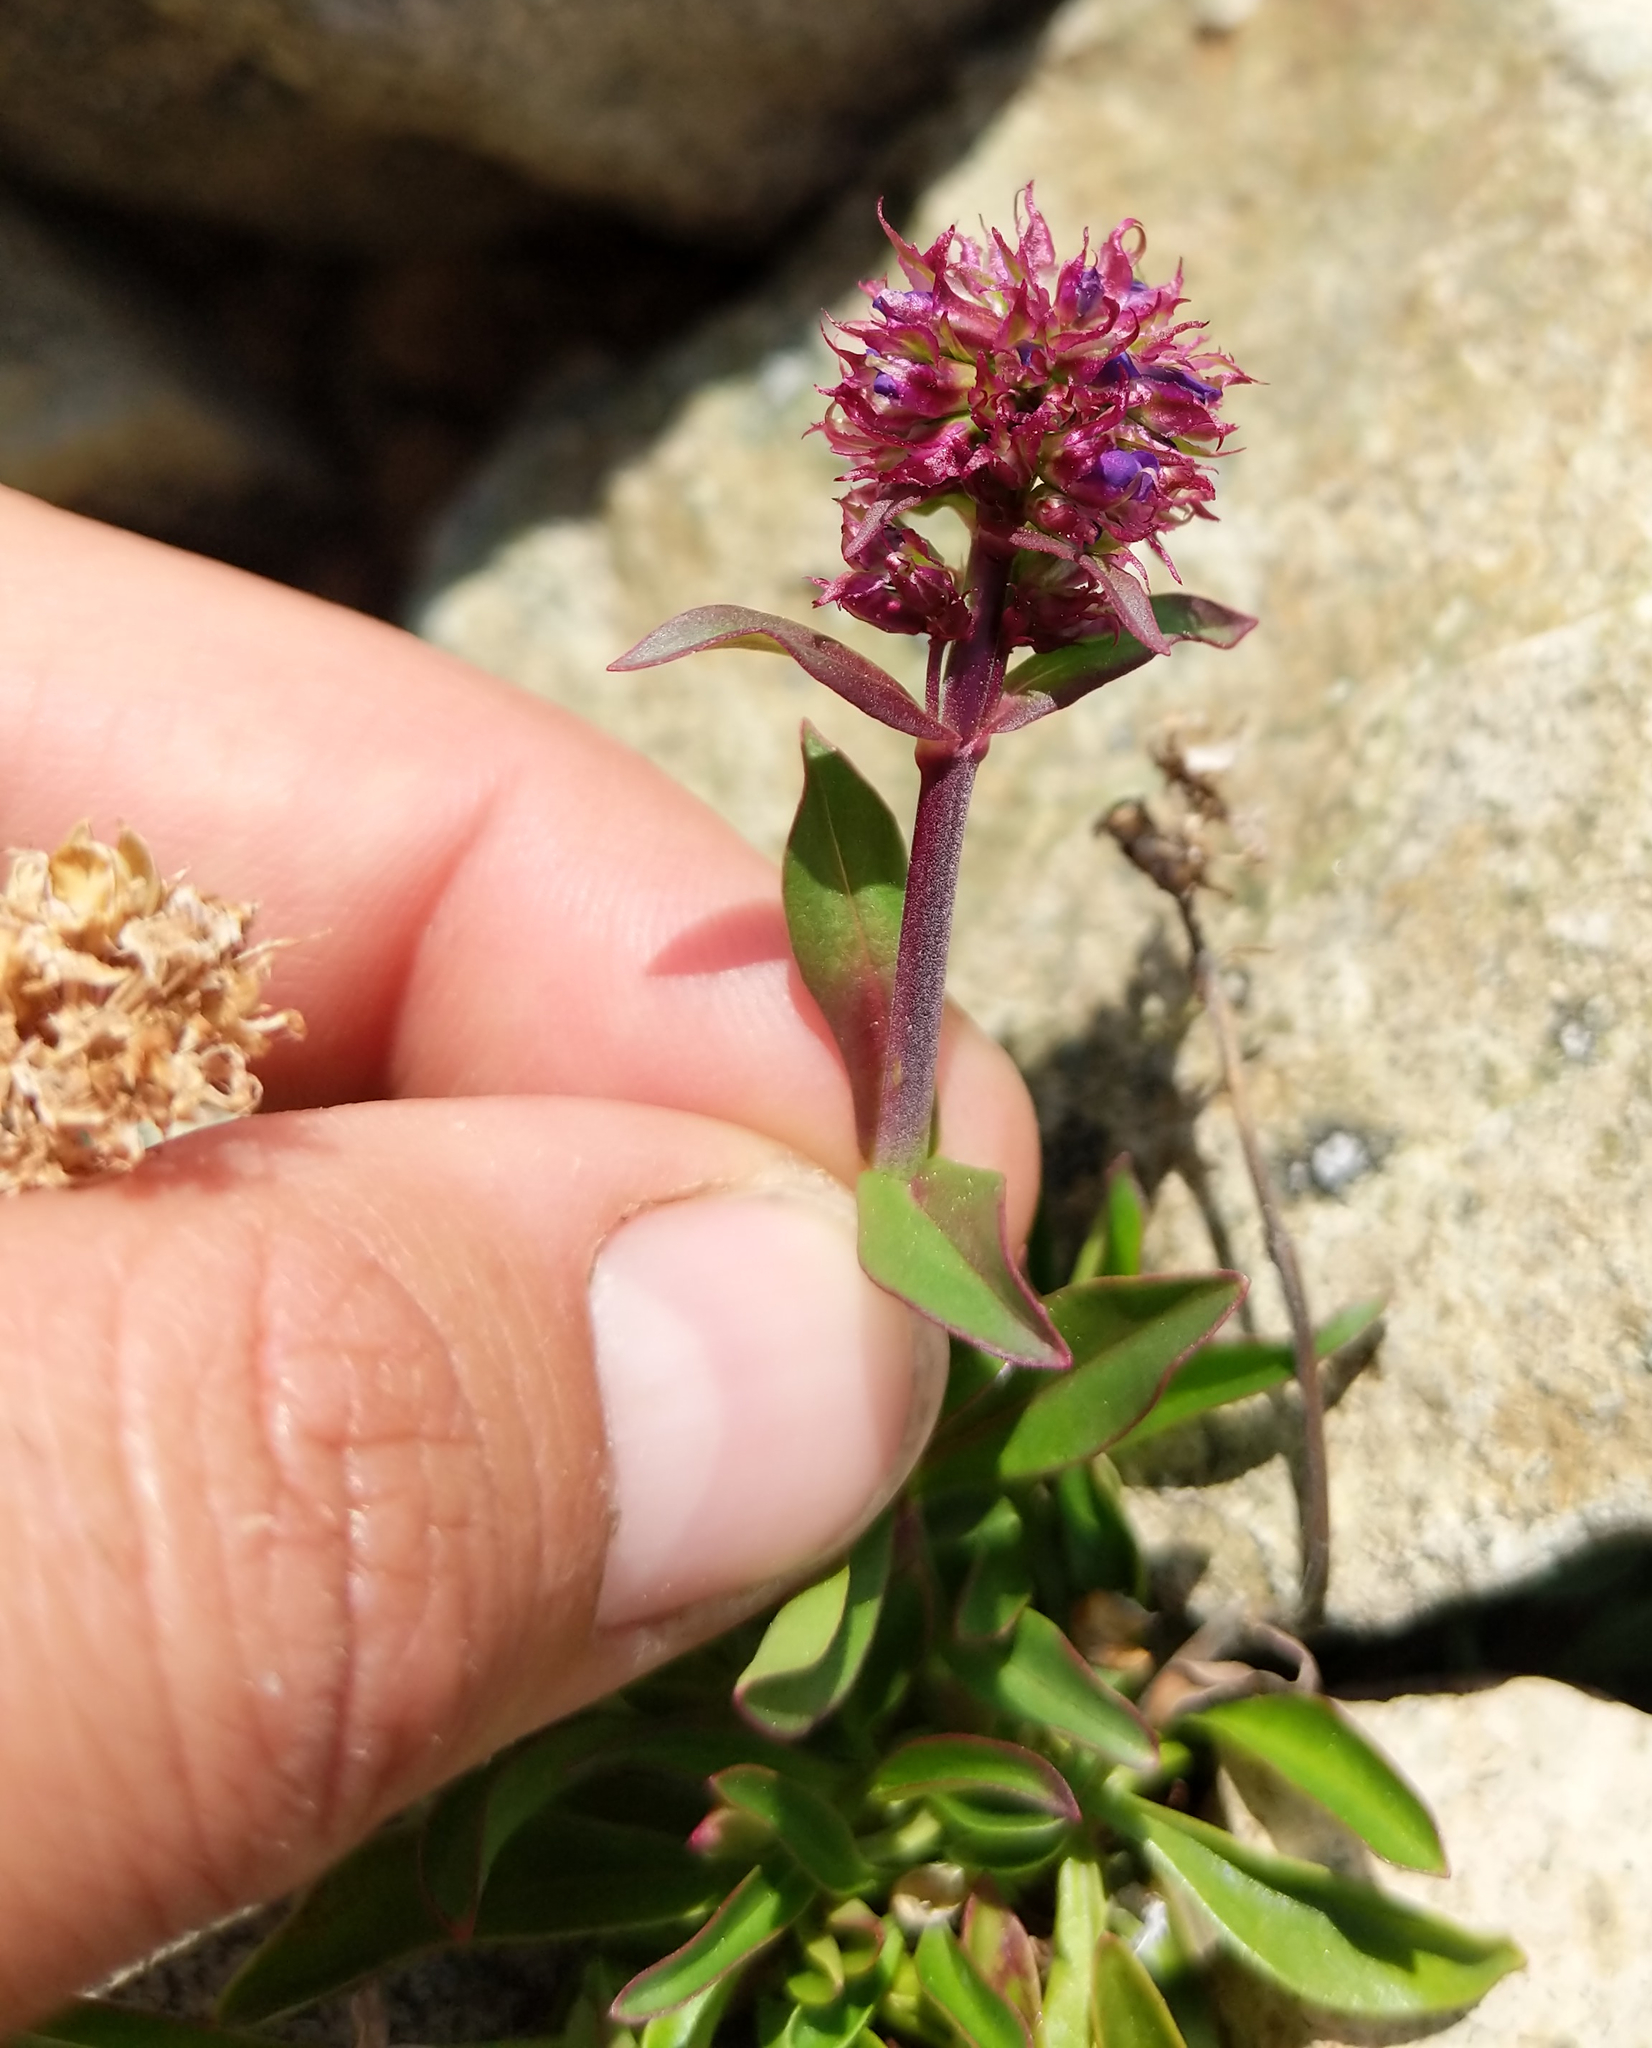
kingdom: Plantae
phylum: Tracheophyta
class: Magnoliopsida
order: Lamiales
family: Plantaginaceae
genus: Penstemon
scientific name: Penstemon procerus
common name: Small-flower penstemon
